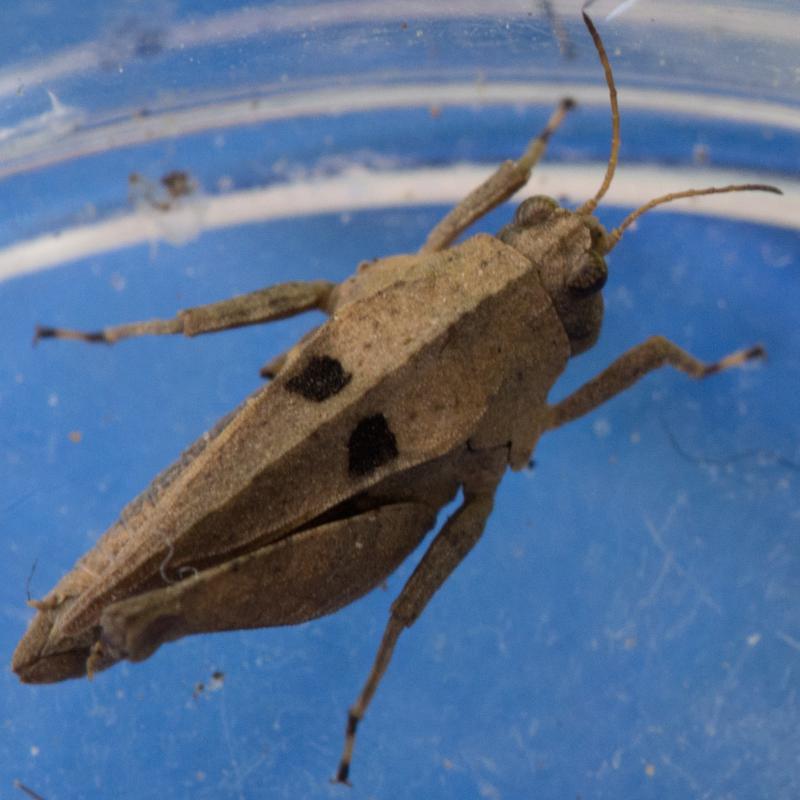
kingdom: Animalia
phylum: Arthropoda
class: Insecta
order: Orthoptera
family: Tetrigidae
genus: Tetrix
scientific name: Tetrix tenuicornis
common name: Long-horned groundhopper
